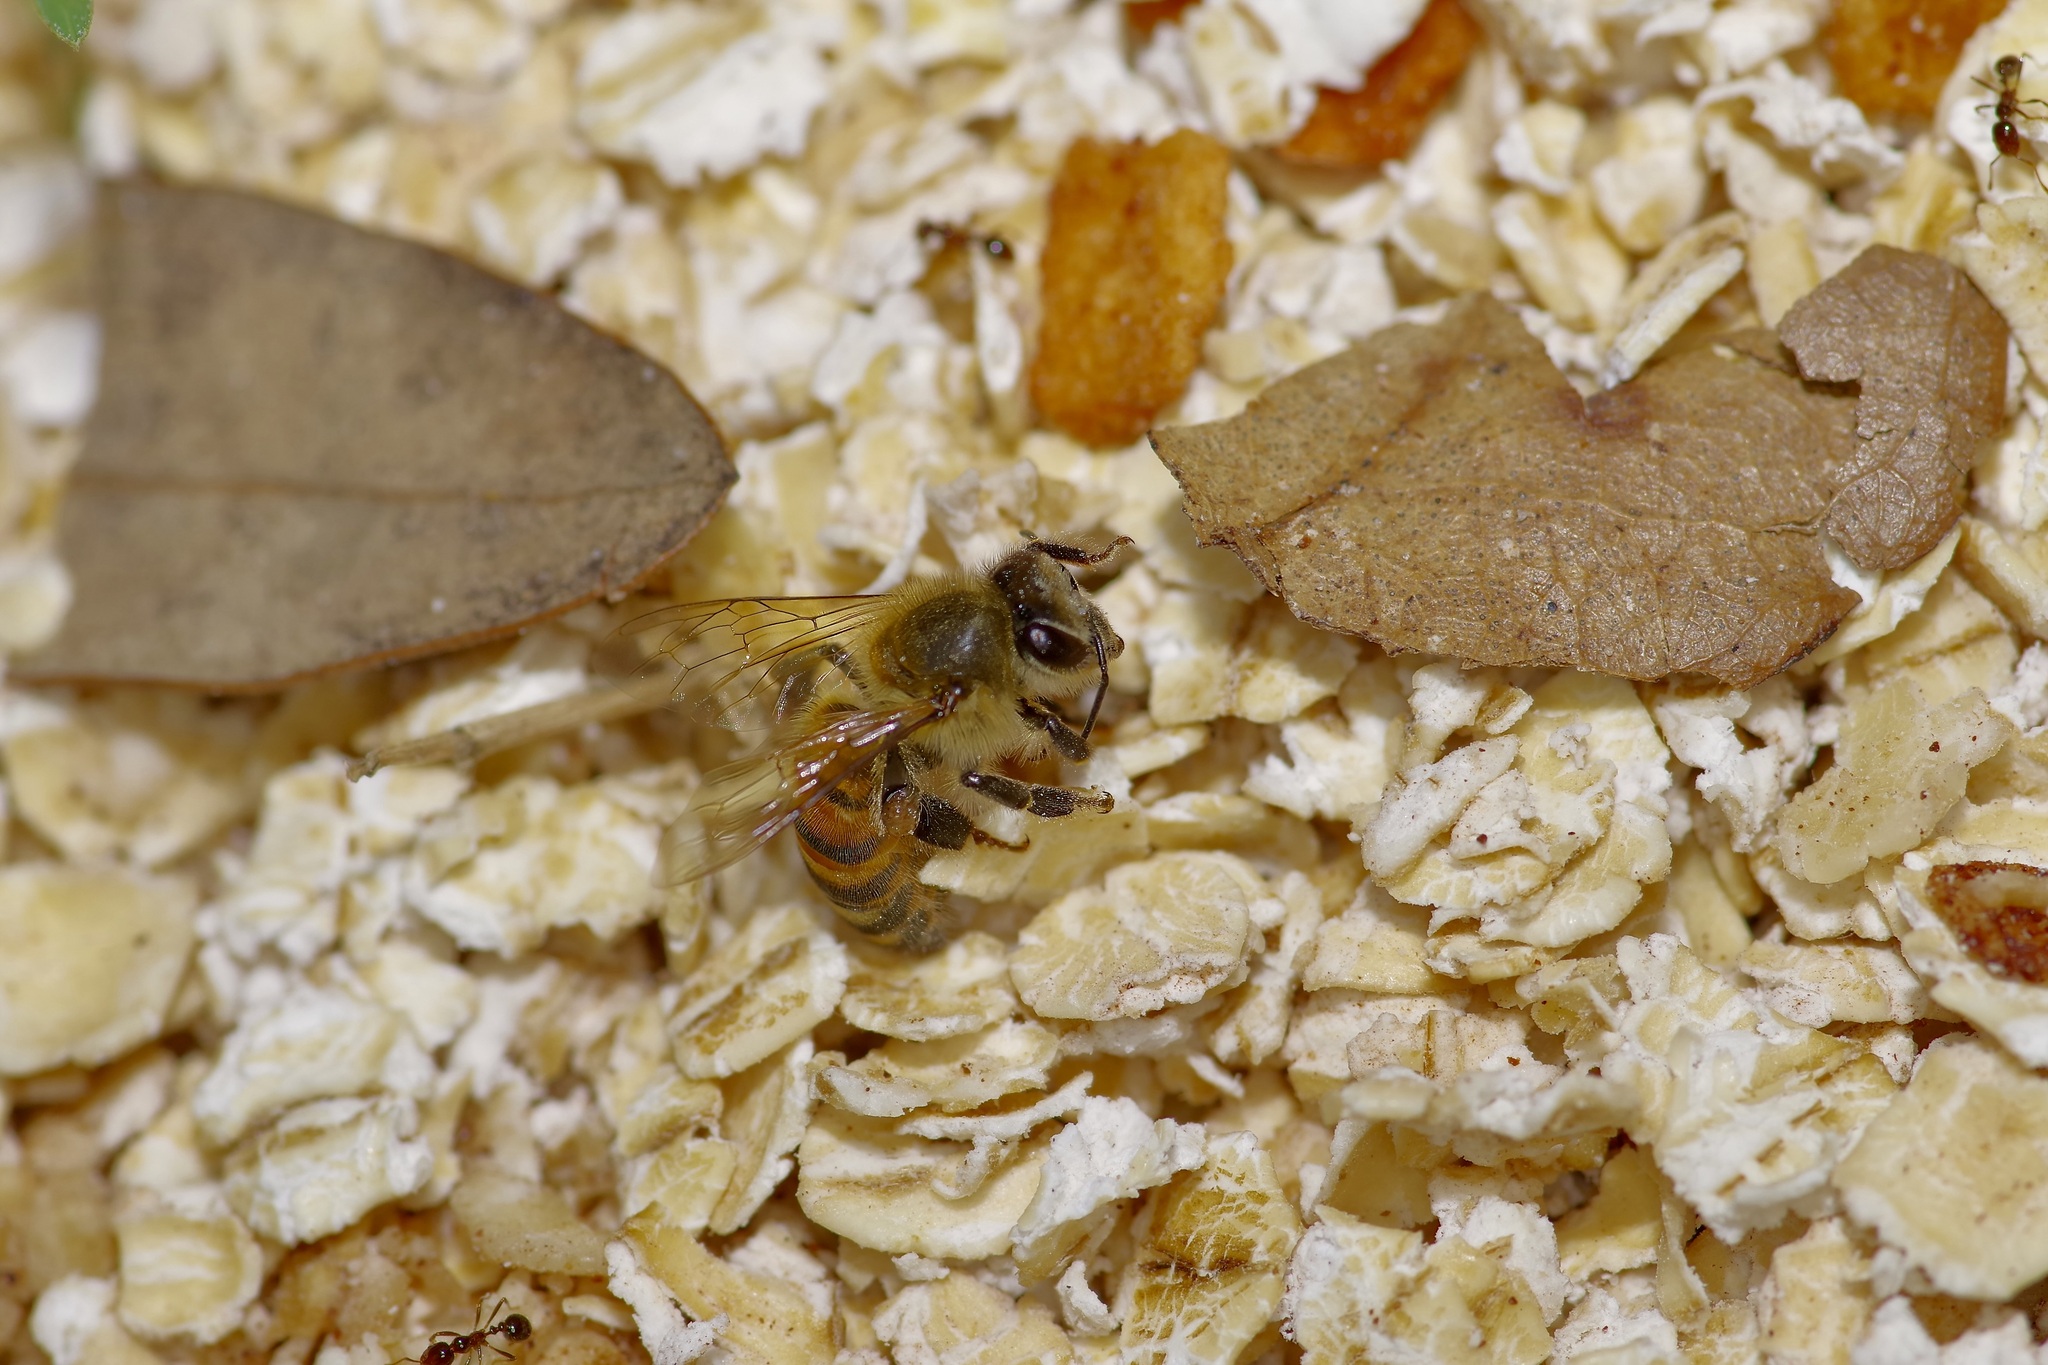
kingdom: Animalia
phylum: Arthropoda
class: Insecta
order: Hymenoptera
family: Apidae
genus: Apis
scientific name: Apis mellifera
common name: Honey bee
